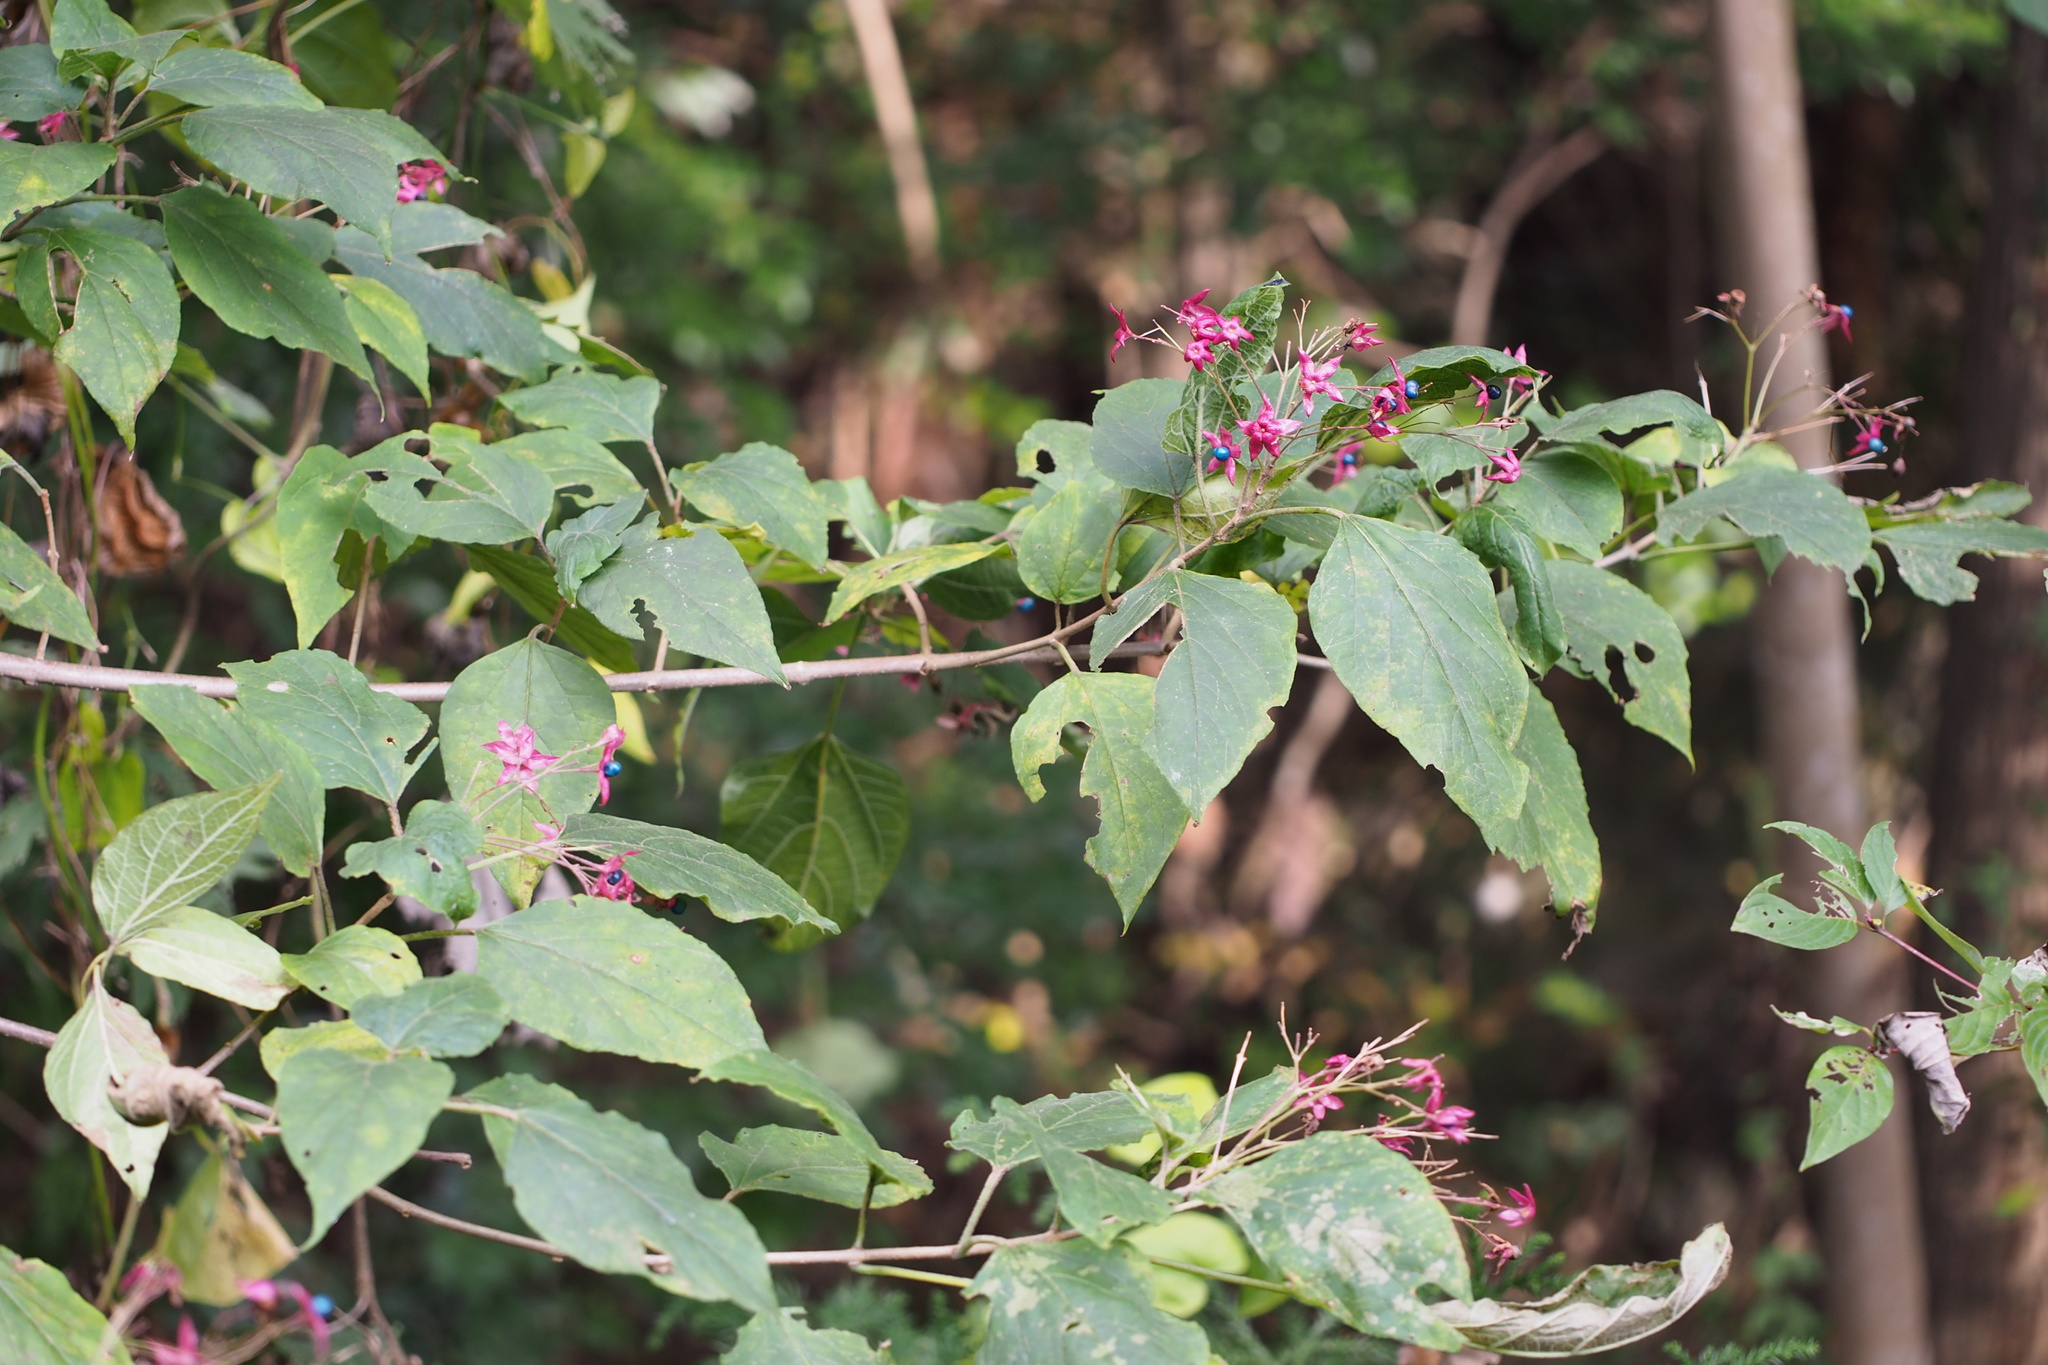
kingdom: Plantae
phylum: Tracheophyta
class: Magnoliopsida
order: Lamiales
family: Lamiaceae
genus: Clerodendrum
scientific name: Clerodendrum trichotomum
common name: Harlequin glorybower
